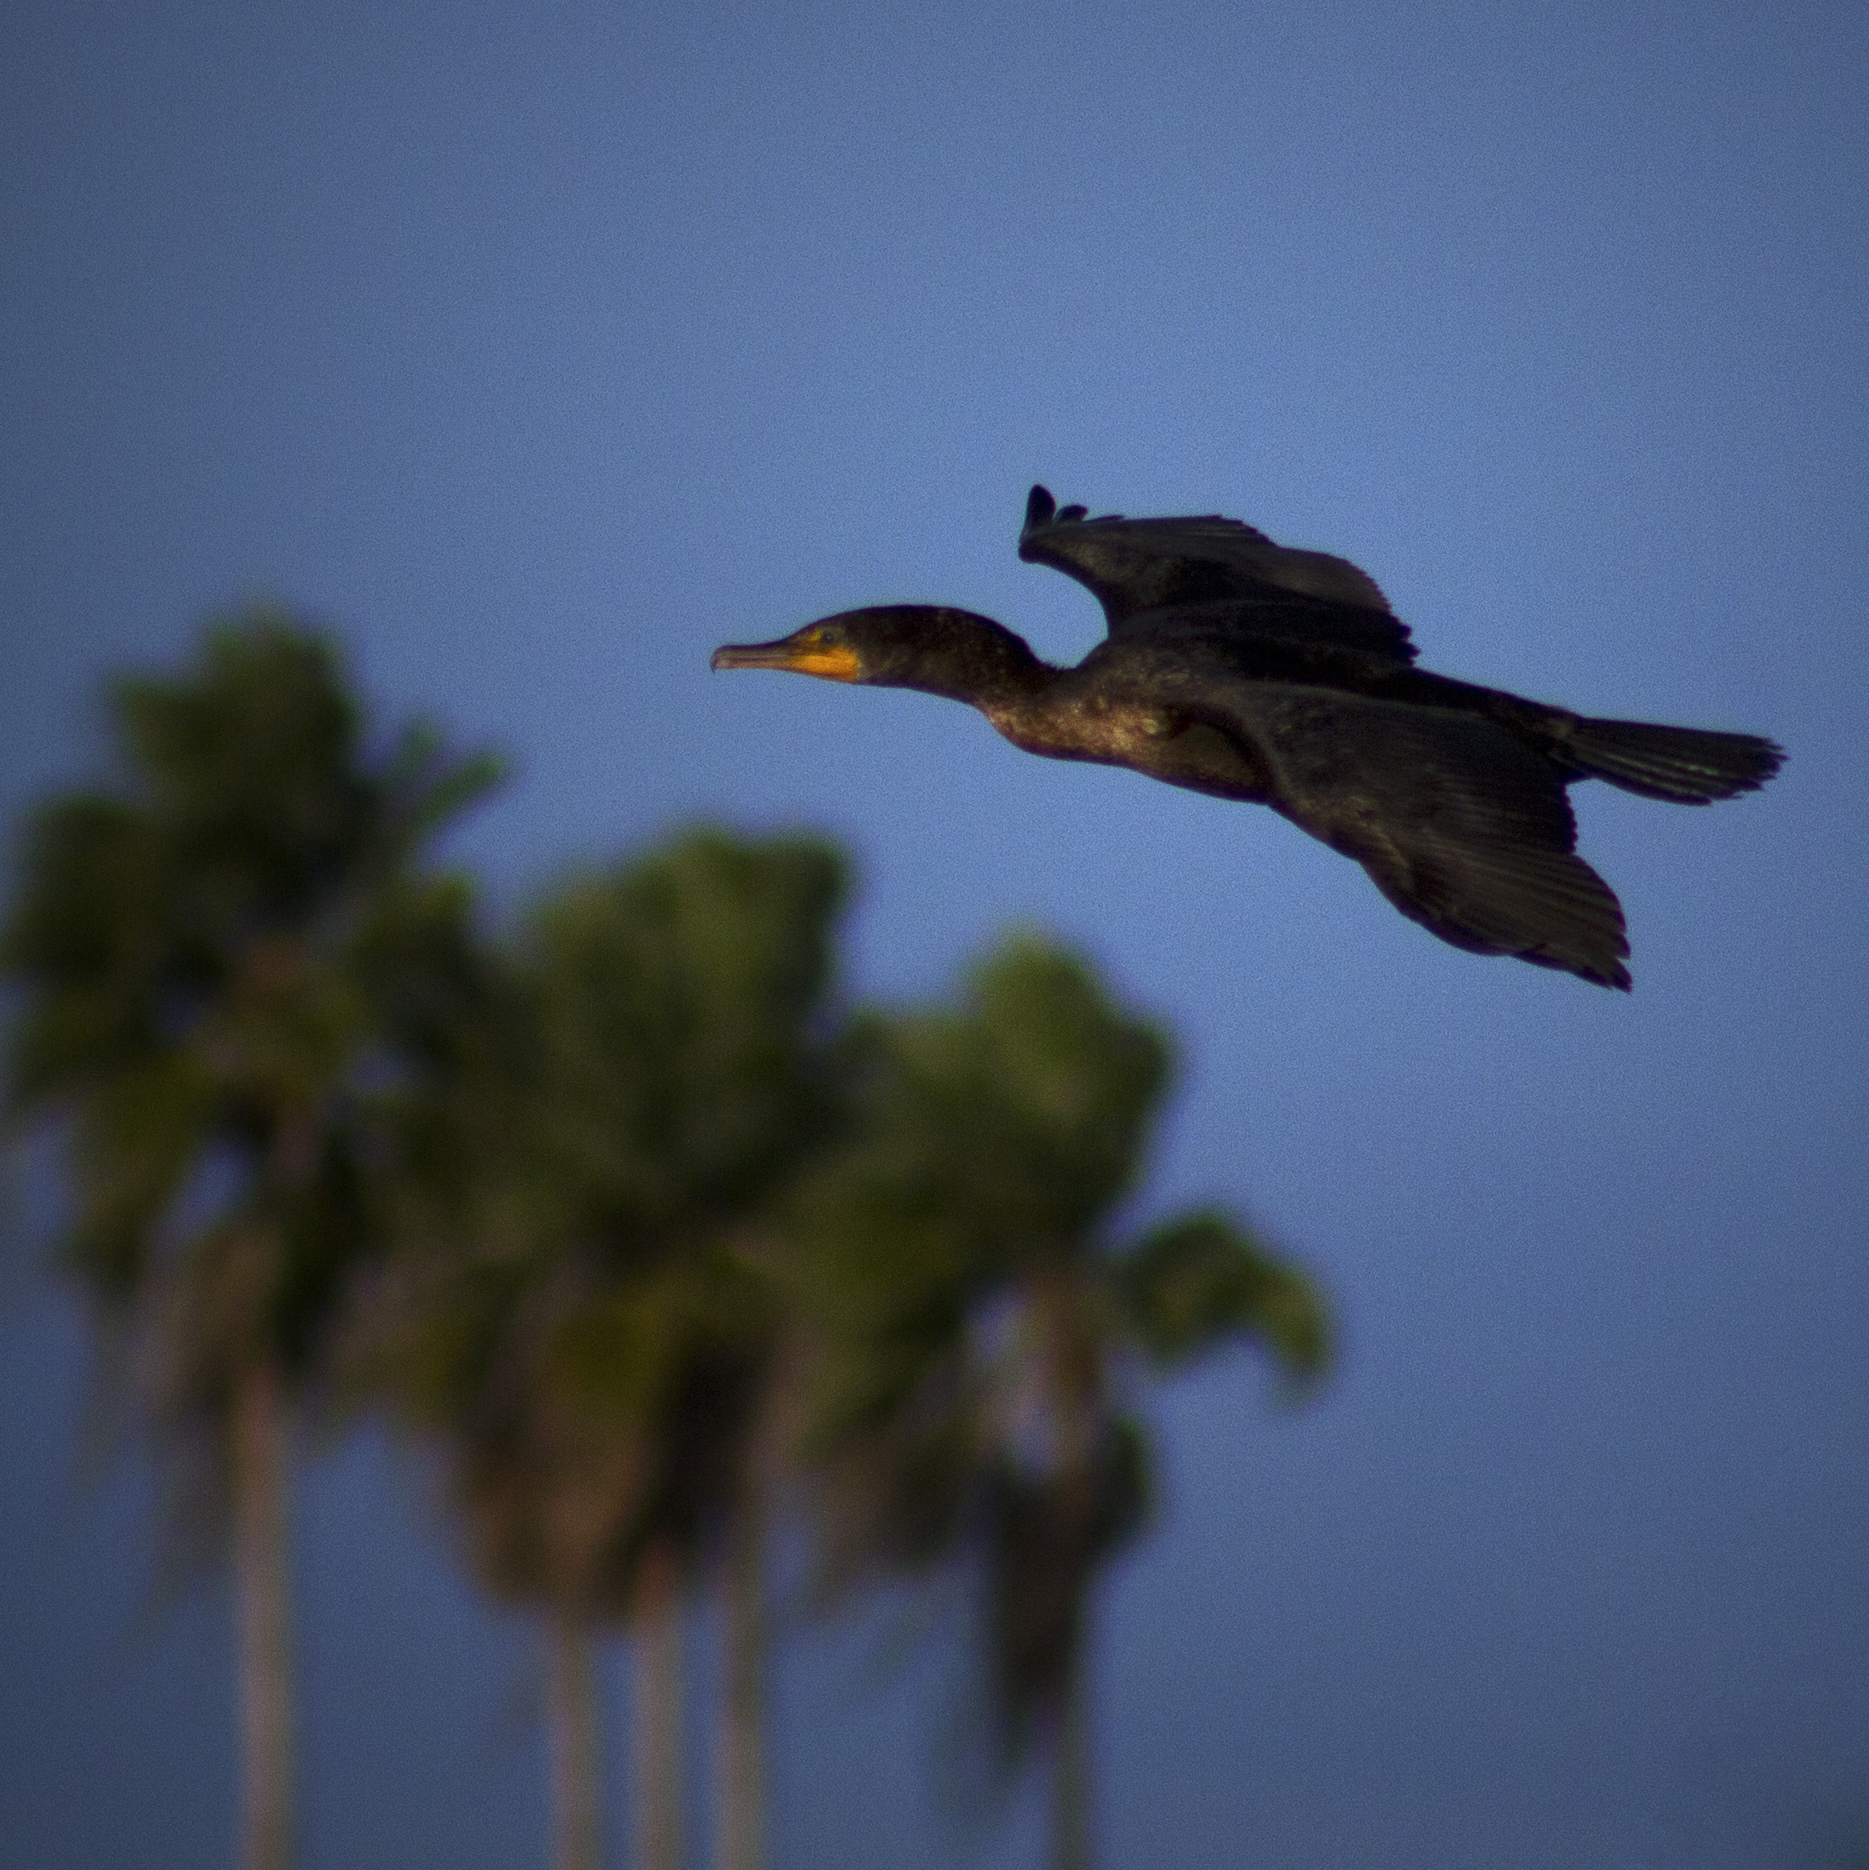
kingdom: Animalia
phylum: Chordata
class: Aves
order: Suliformes
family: Phalacrocoracidae
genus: Phalacrocorax
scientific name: Phalacrocorax auritus
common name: Double-crested cormorant
